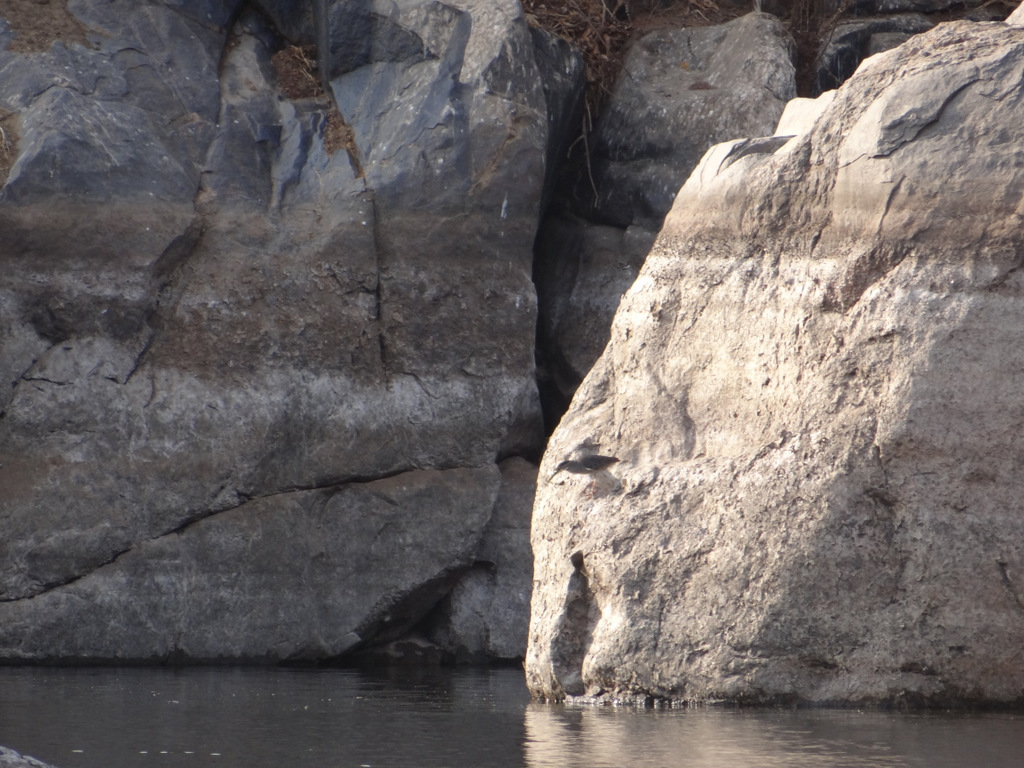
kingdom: Animalia
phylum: Chordata
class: Aves
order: Pelecaniformes
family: Ardeidae
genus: Butorides
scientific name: Butorides striata
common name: Striated heron
